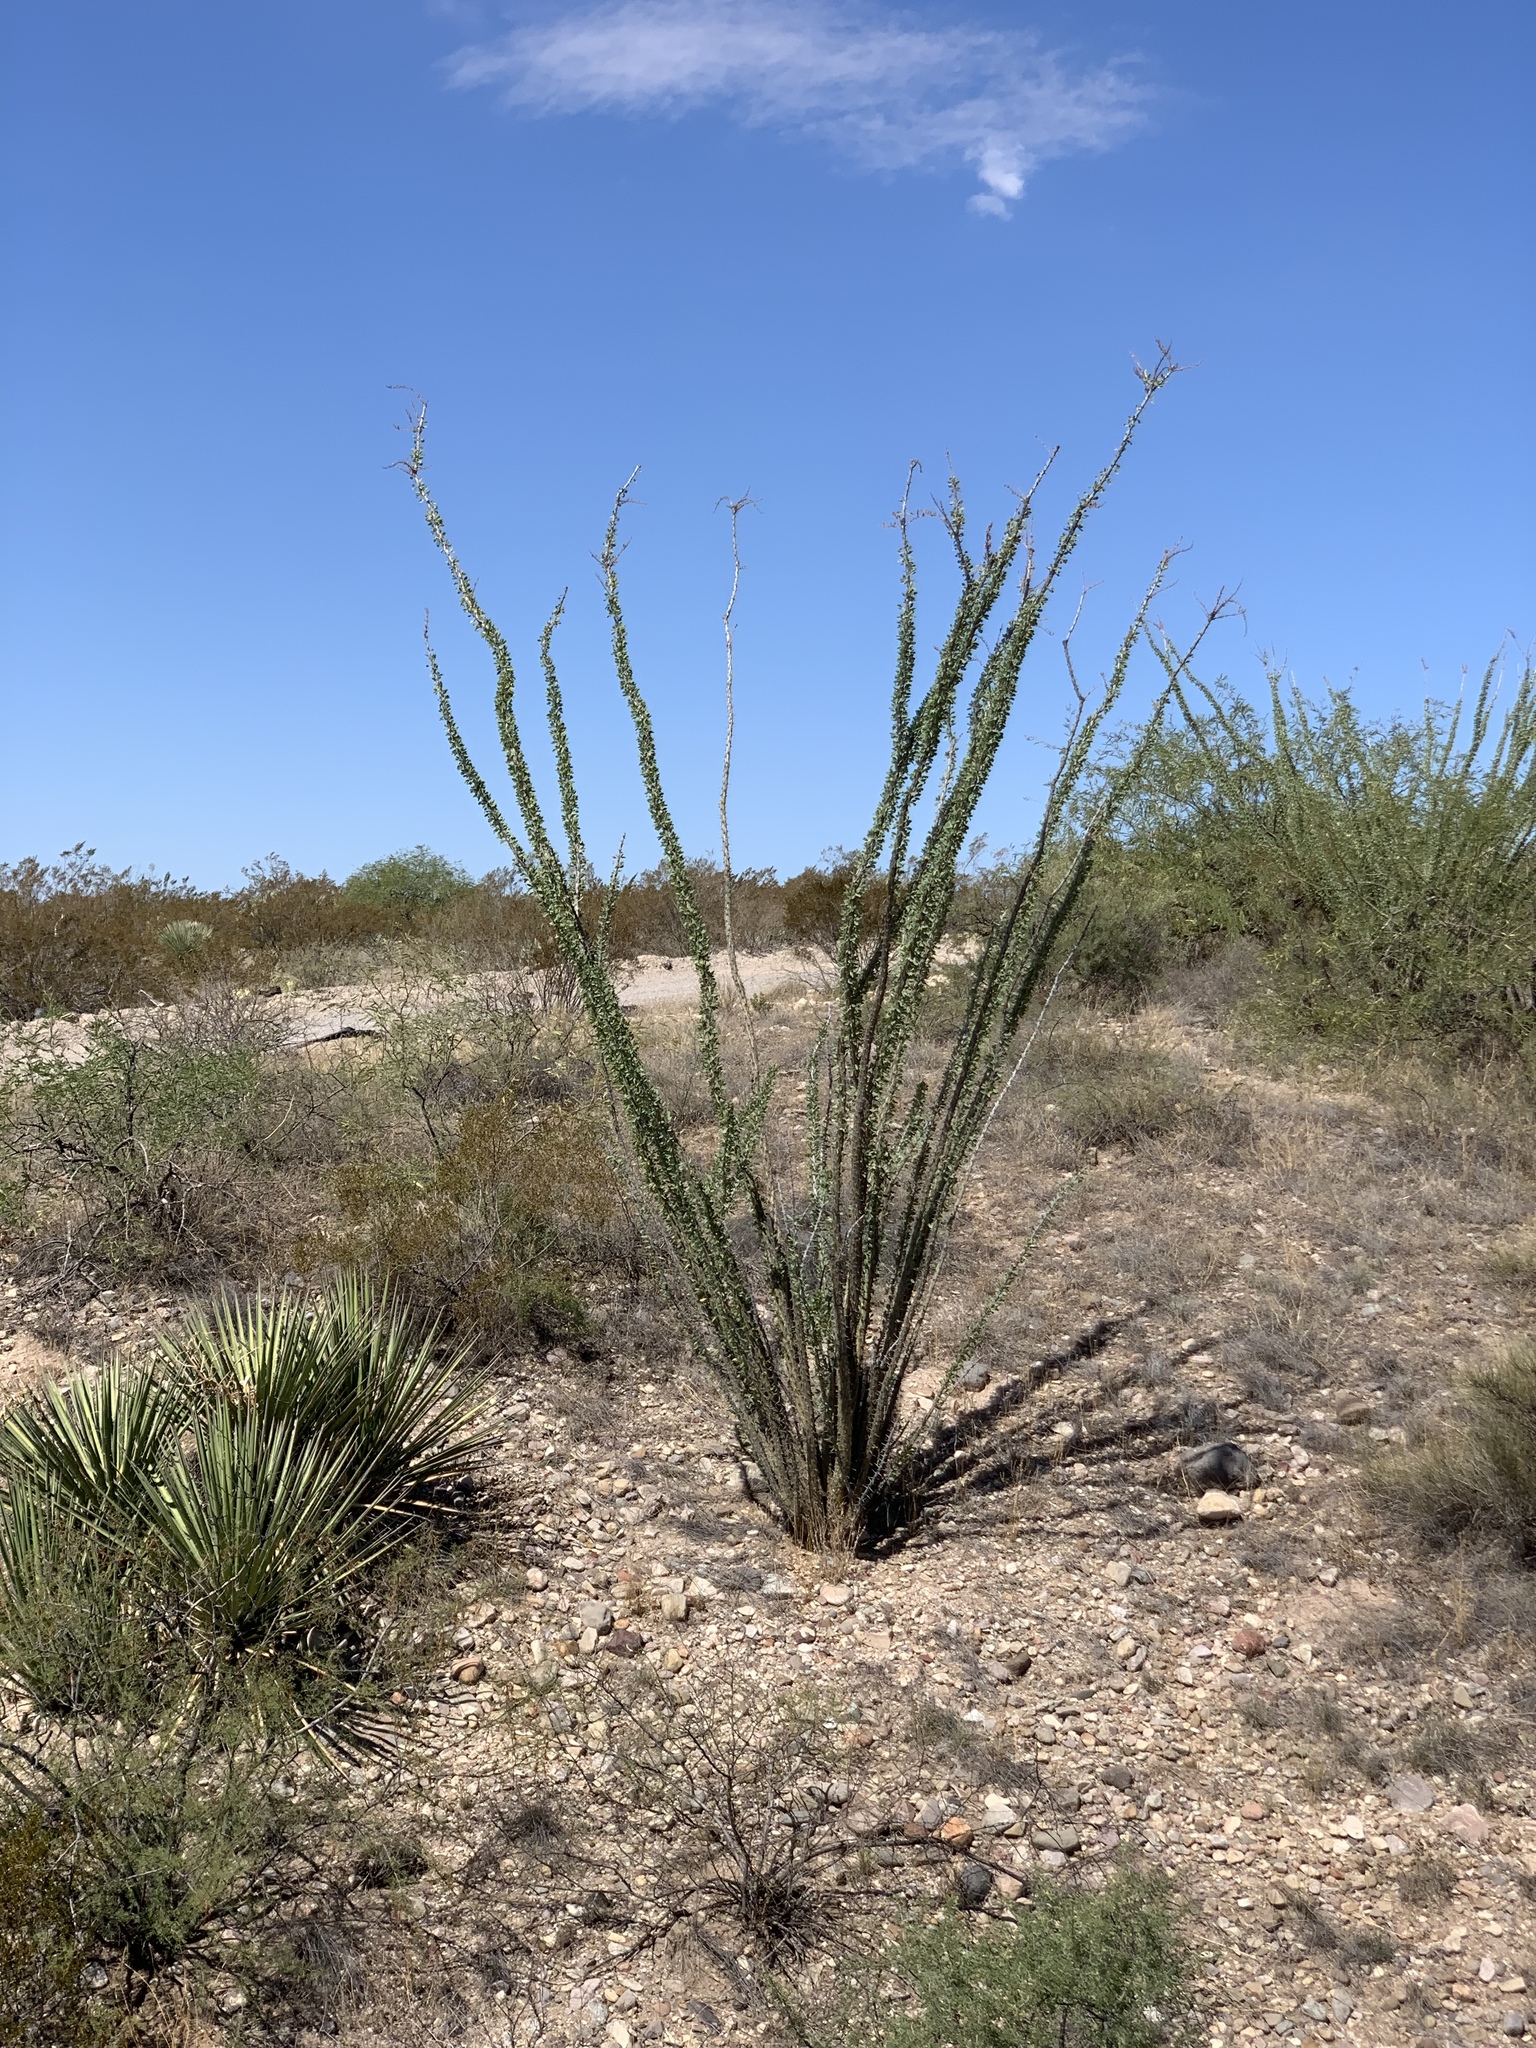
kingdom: Plantae
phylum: Tracheophyta
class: Magnoliopsida
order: Ericales
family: Fouquieriaceae
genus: Fouquieria
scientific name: Fouquieria splendens
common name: Vine-cactus
